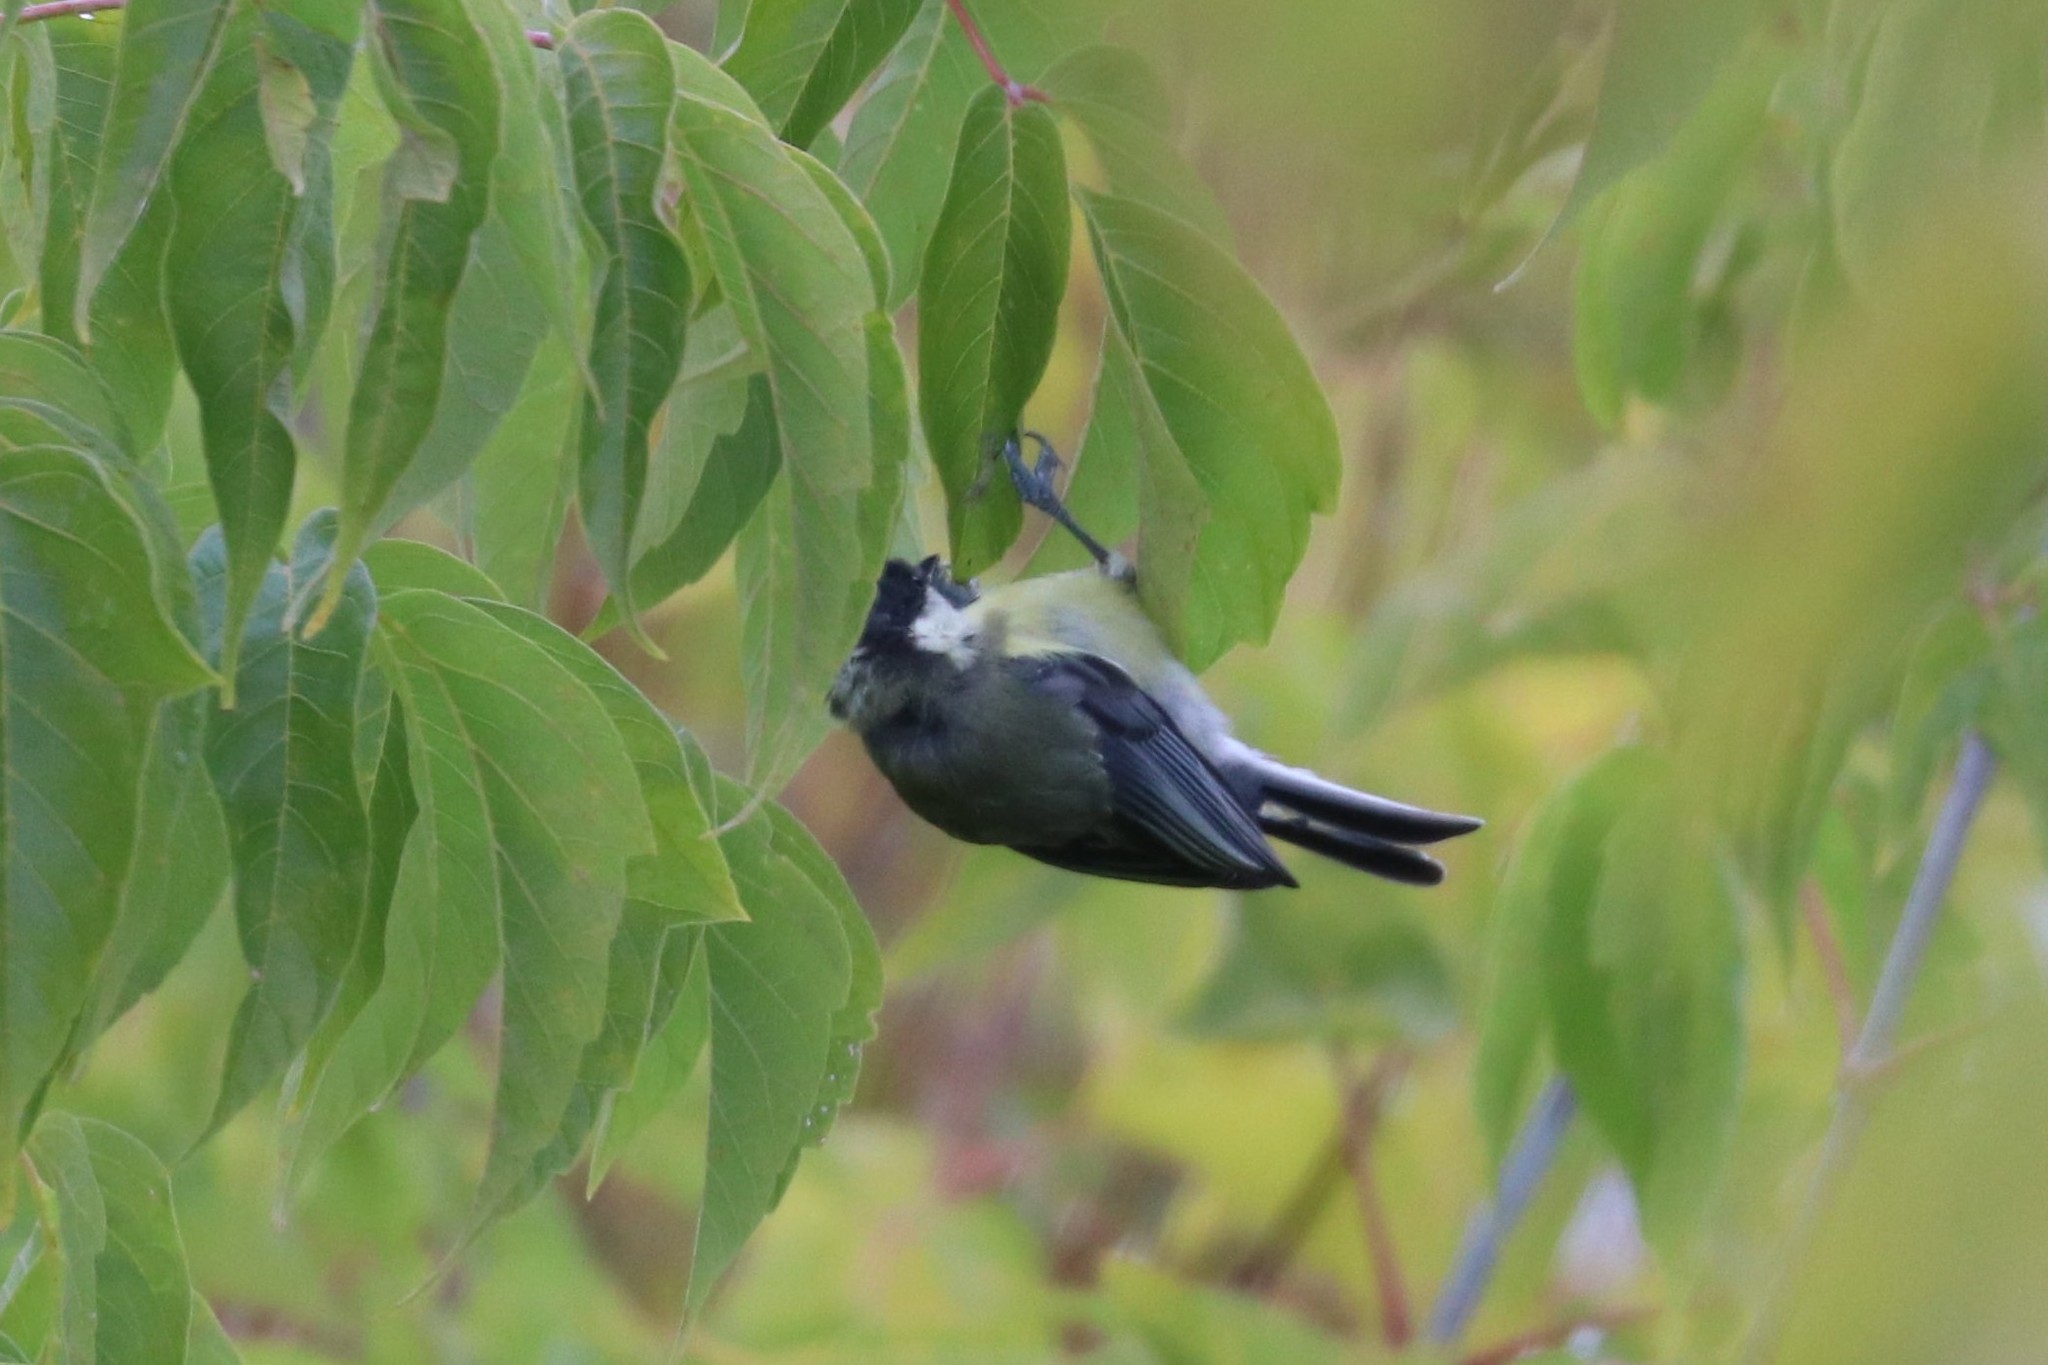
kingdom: Animalia
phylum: Chordata
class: Aves
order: Passeriformes
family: Paridae
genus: Parus
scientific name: Parus major
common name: Great tit
